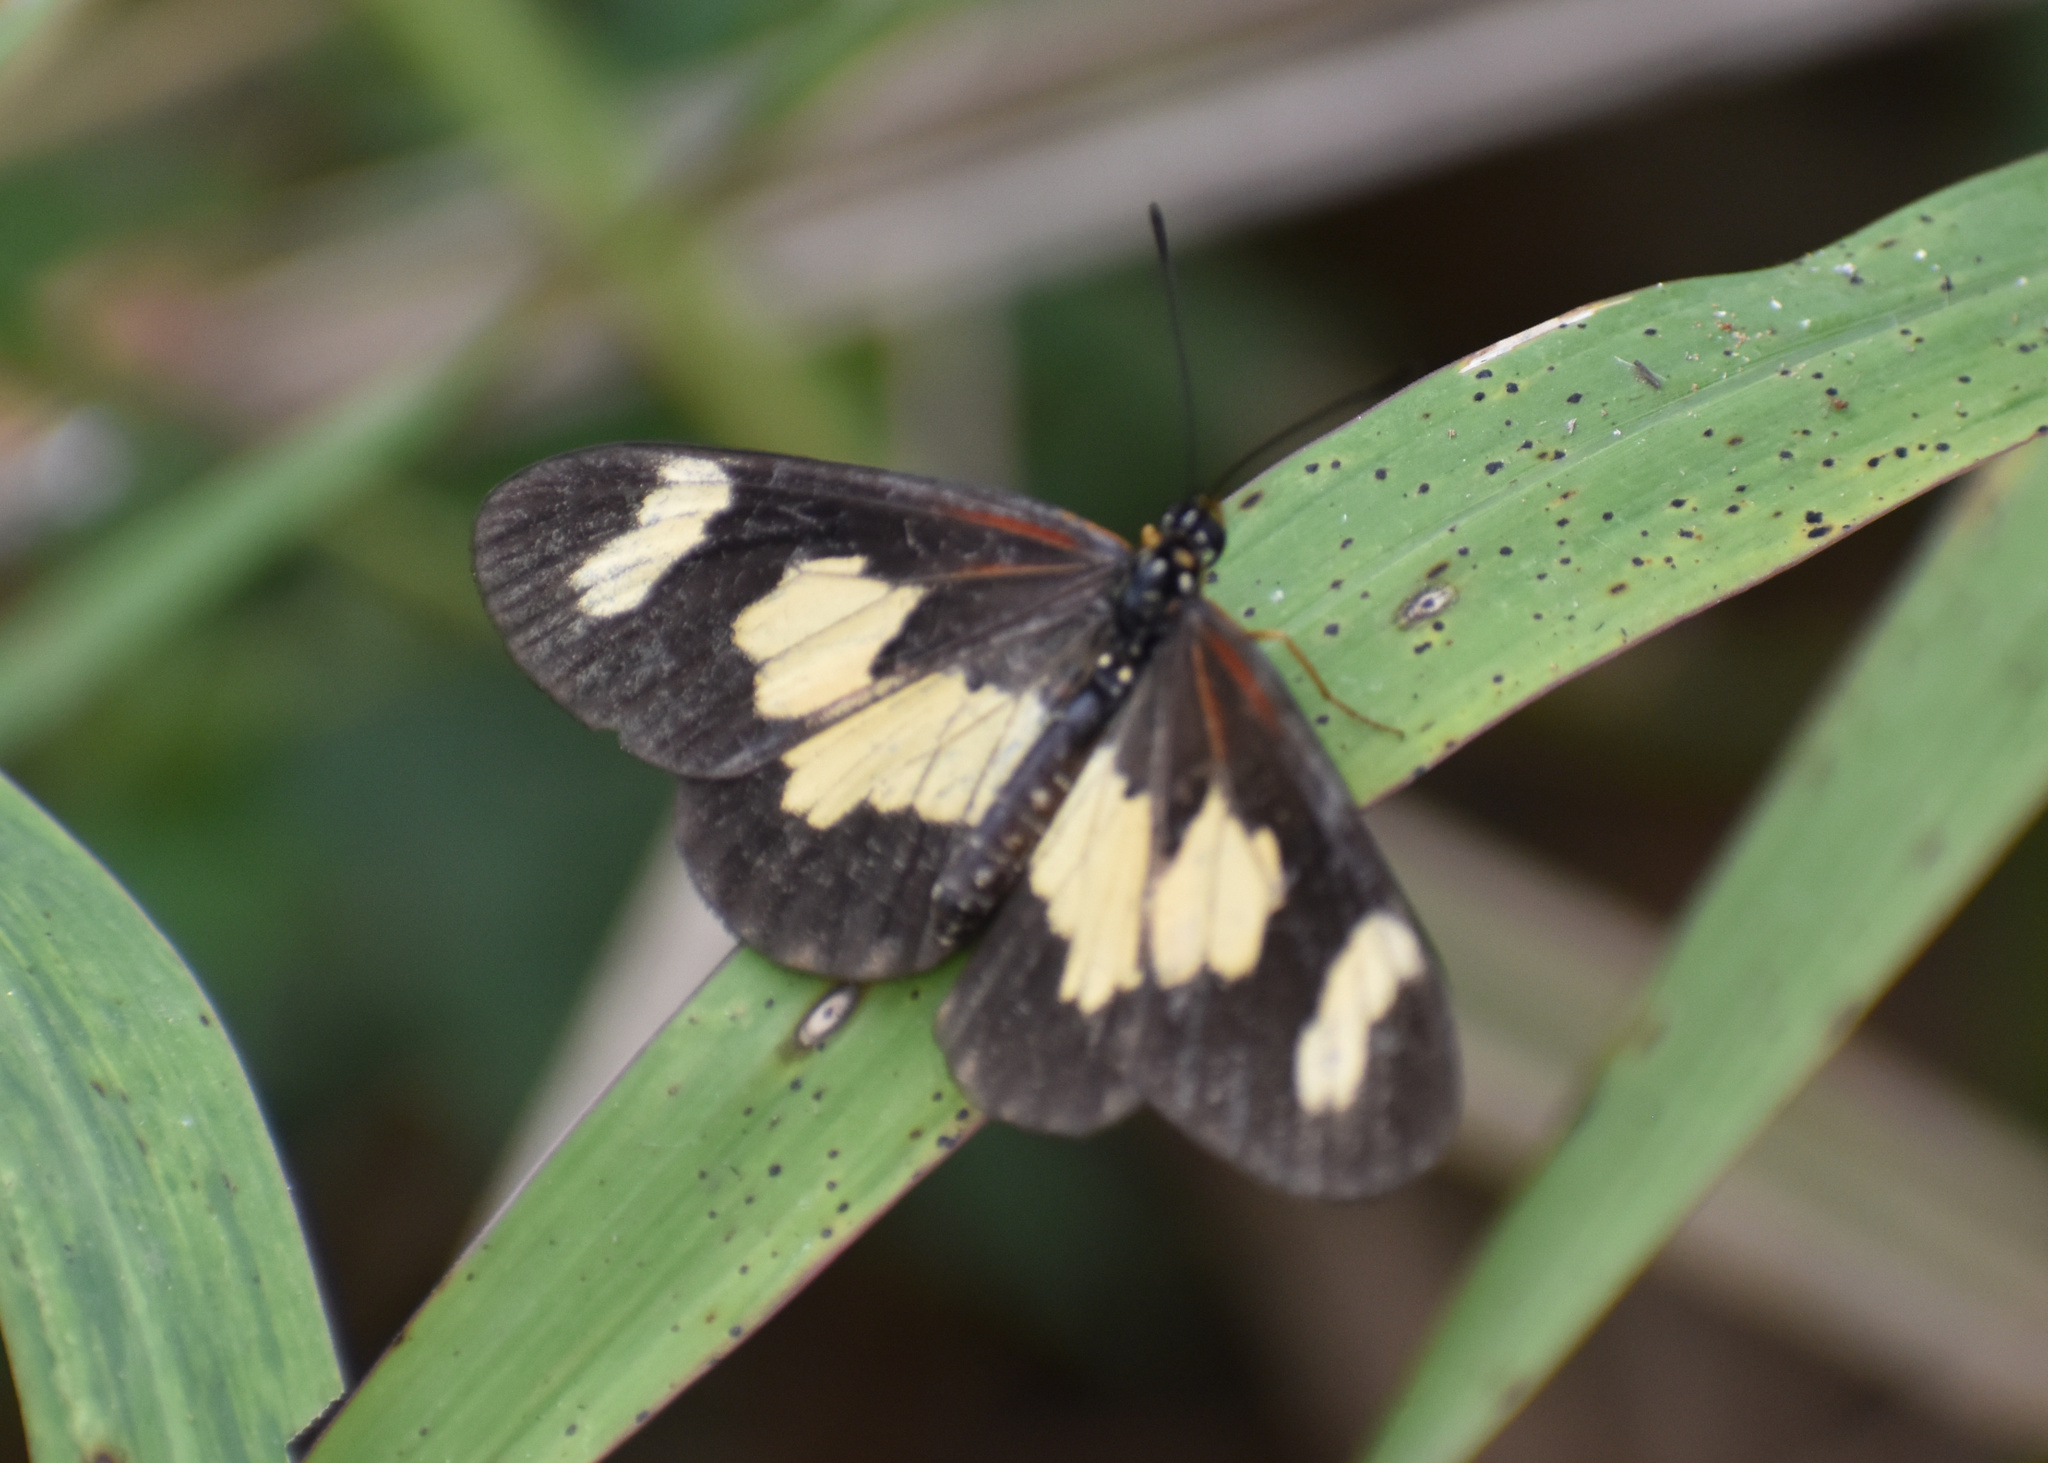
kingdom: Animalia
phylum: Arthropoda
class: Insecta
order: Lepidoptera
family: Nymphalidae
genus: Acraea
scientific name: Acraea cabira
